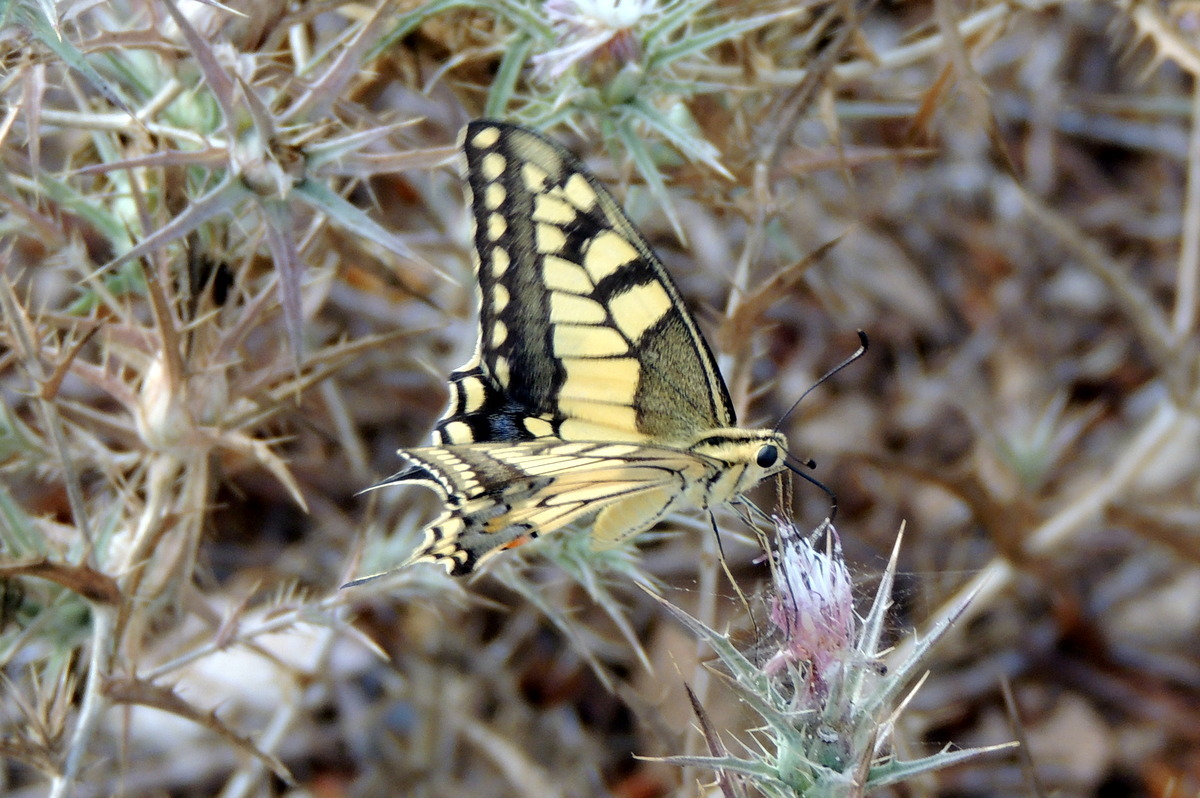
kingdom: Animalia
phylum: Arthropoda
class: Insecta
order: Lepidoptera
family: Papilionidae
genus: Papilio
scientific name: Papilio machaon
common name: Swallowtail
